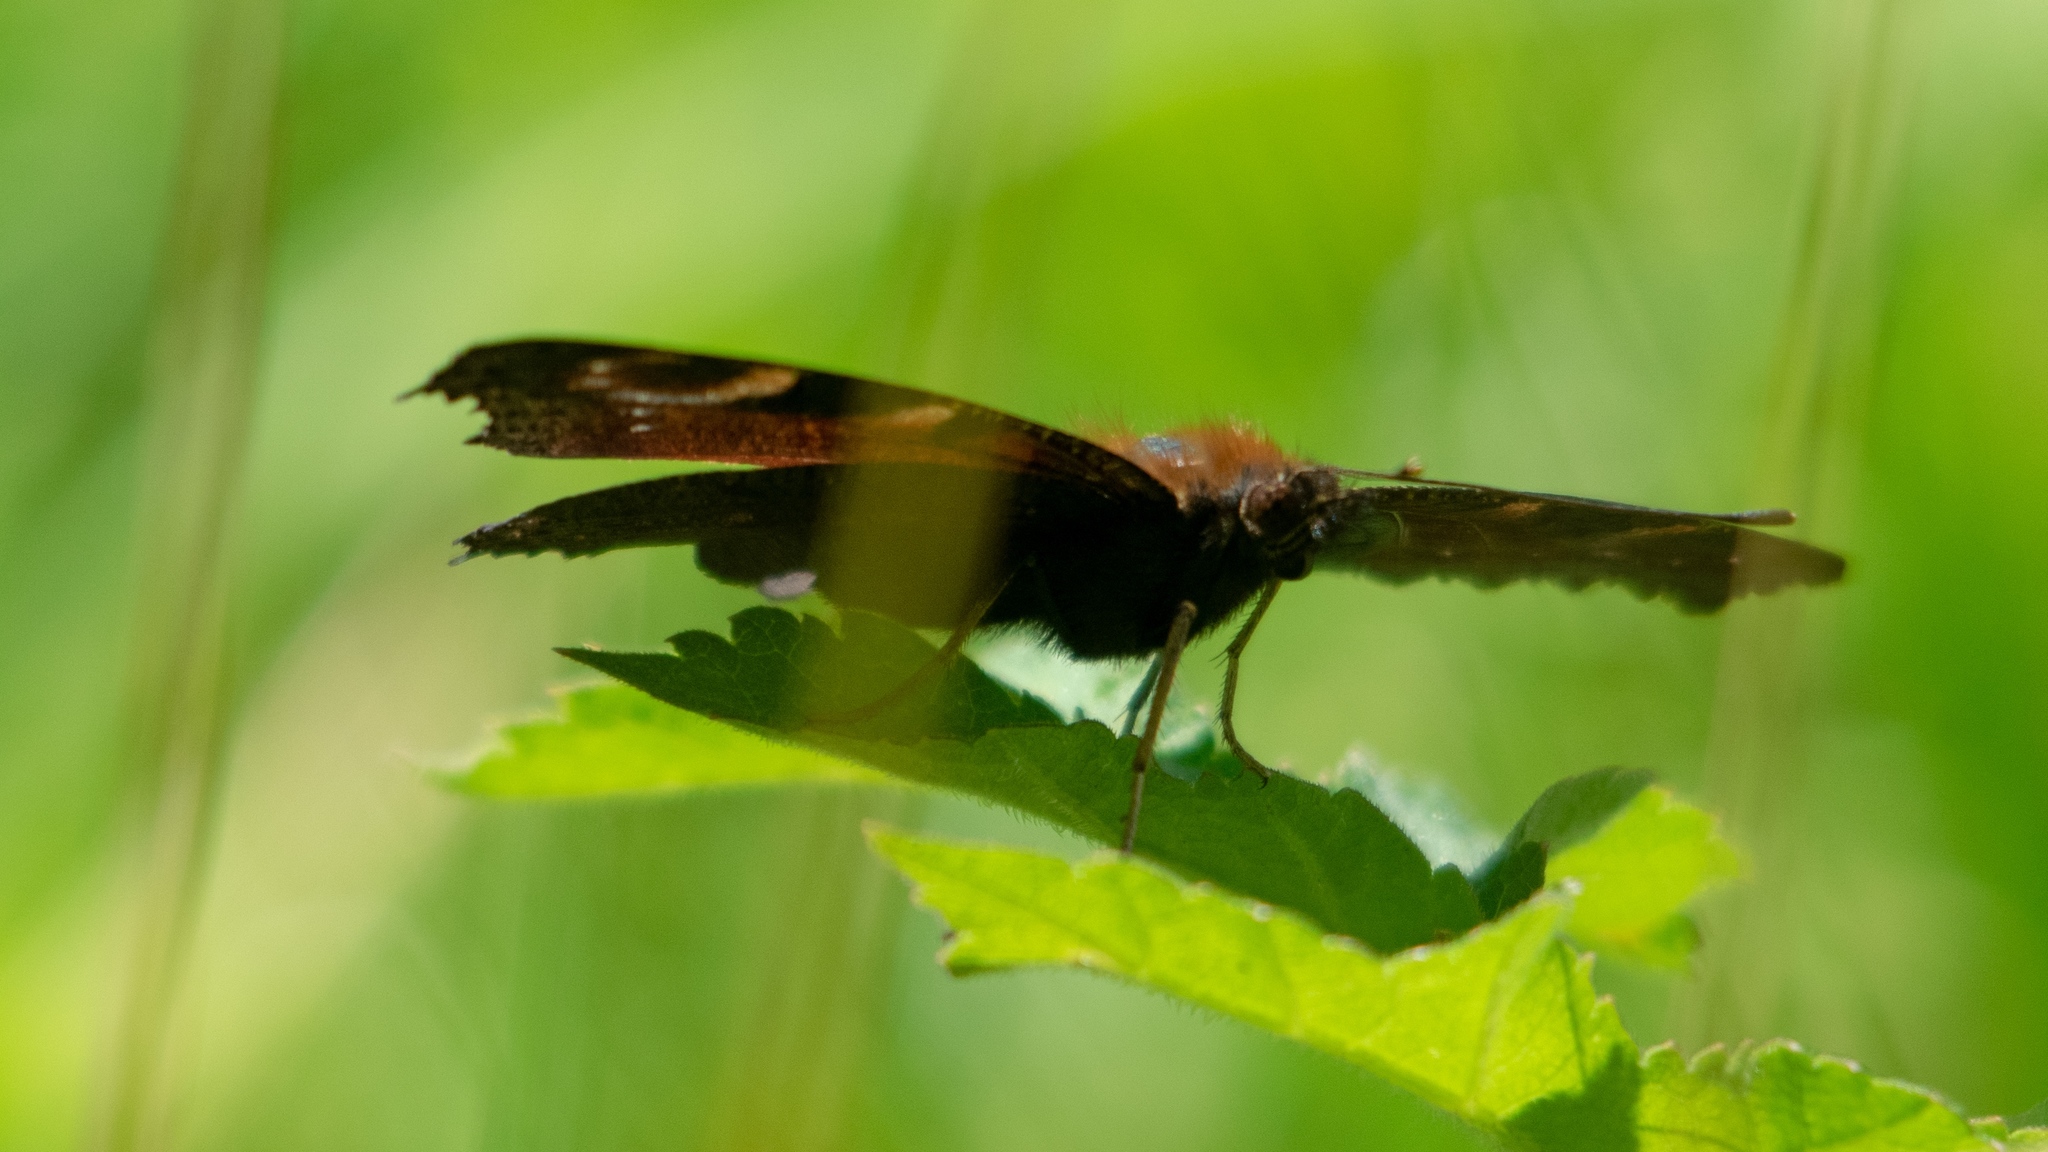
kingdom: Animalia
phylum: Arthropoda
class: Insecta
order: Lepidoptera
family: Nymphalidae
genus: Aglais
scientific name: Aglais io
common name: Peacock
